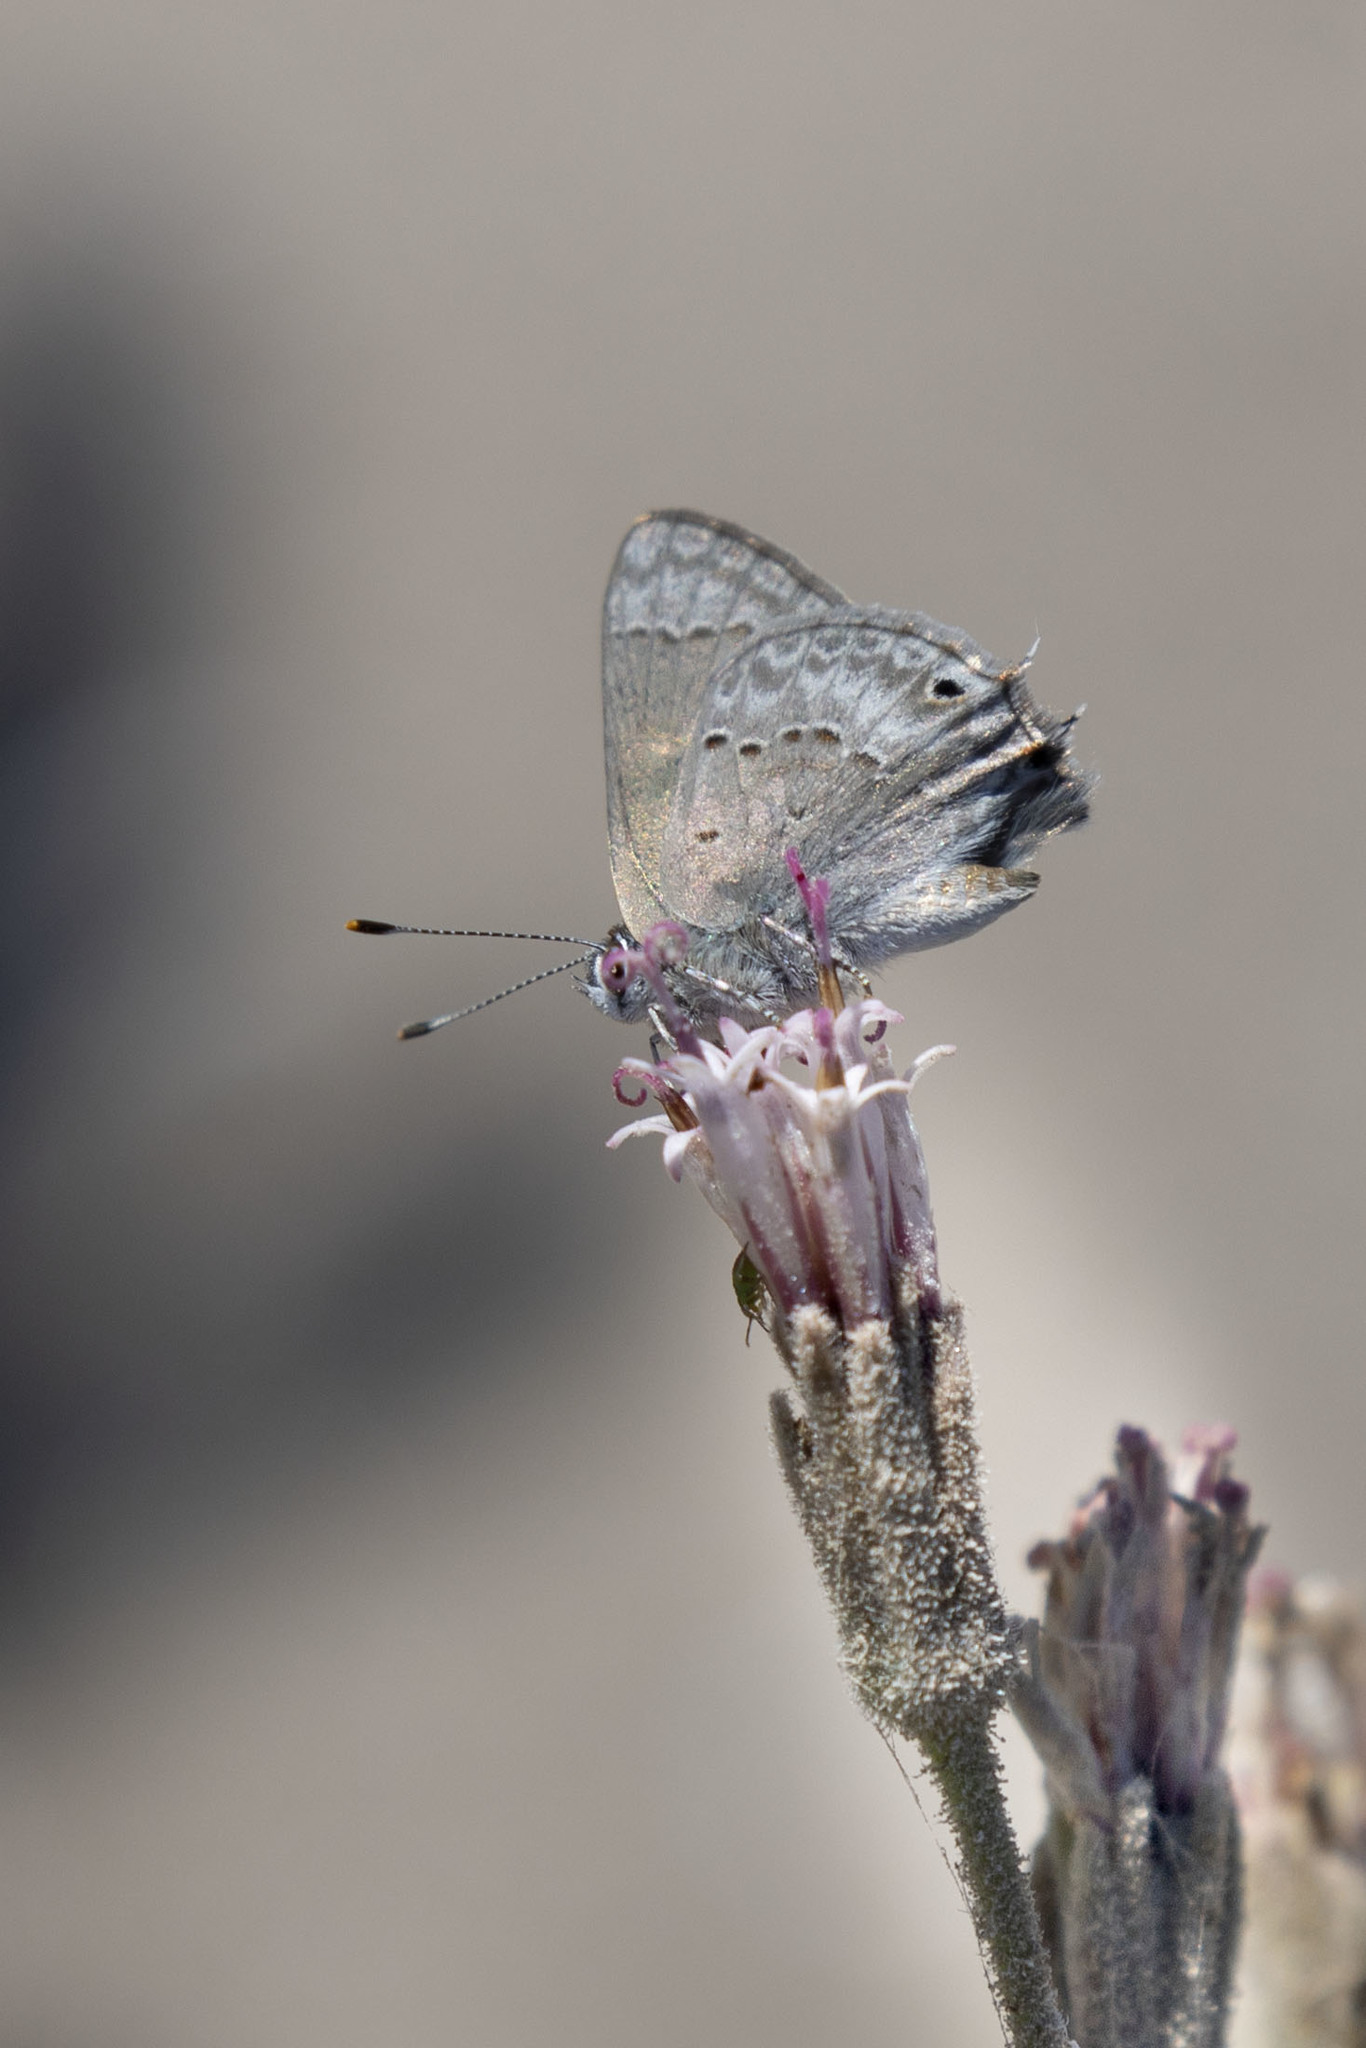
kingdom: Animalia
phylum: Arthropoda
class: Insecta
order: Lepidoptera
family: Lycaenidae
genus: Callicista
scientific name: Callicista columella
